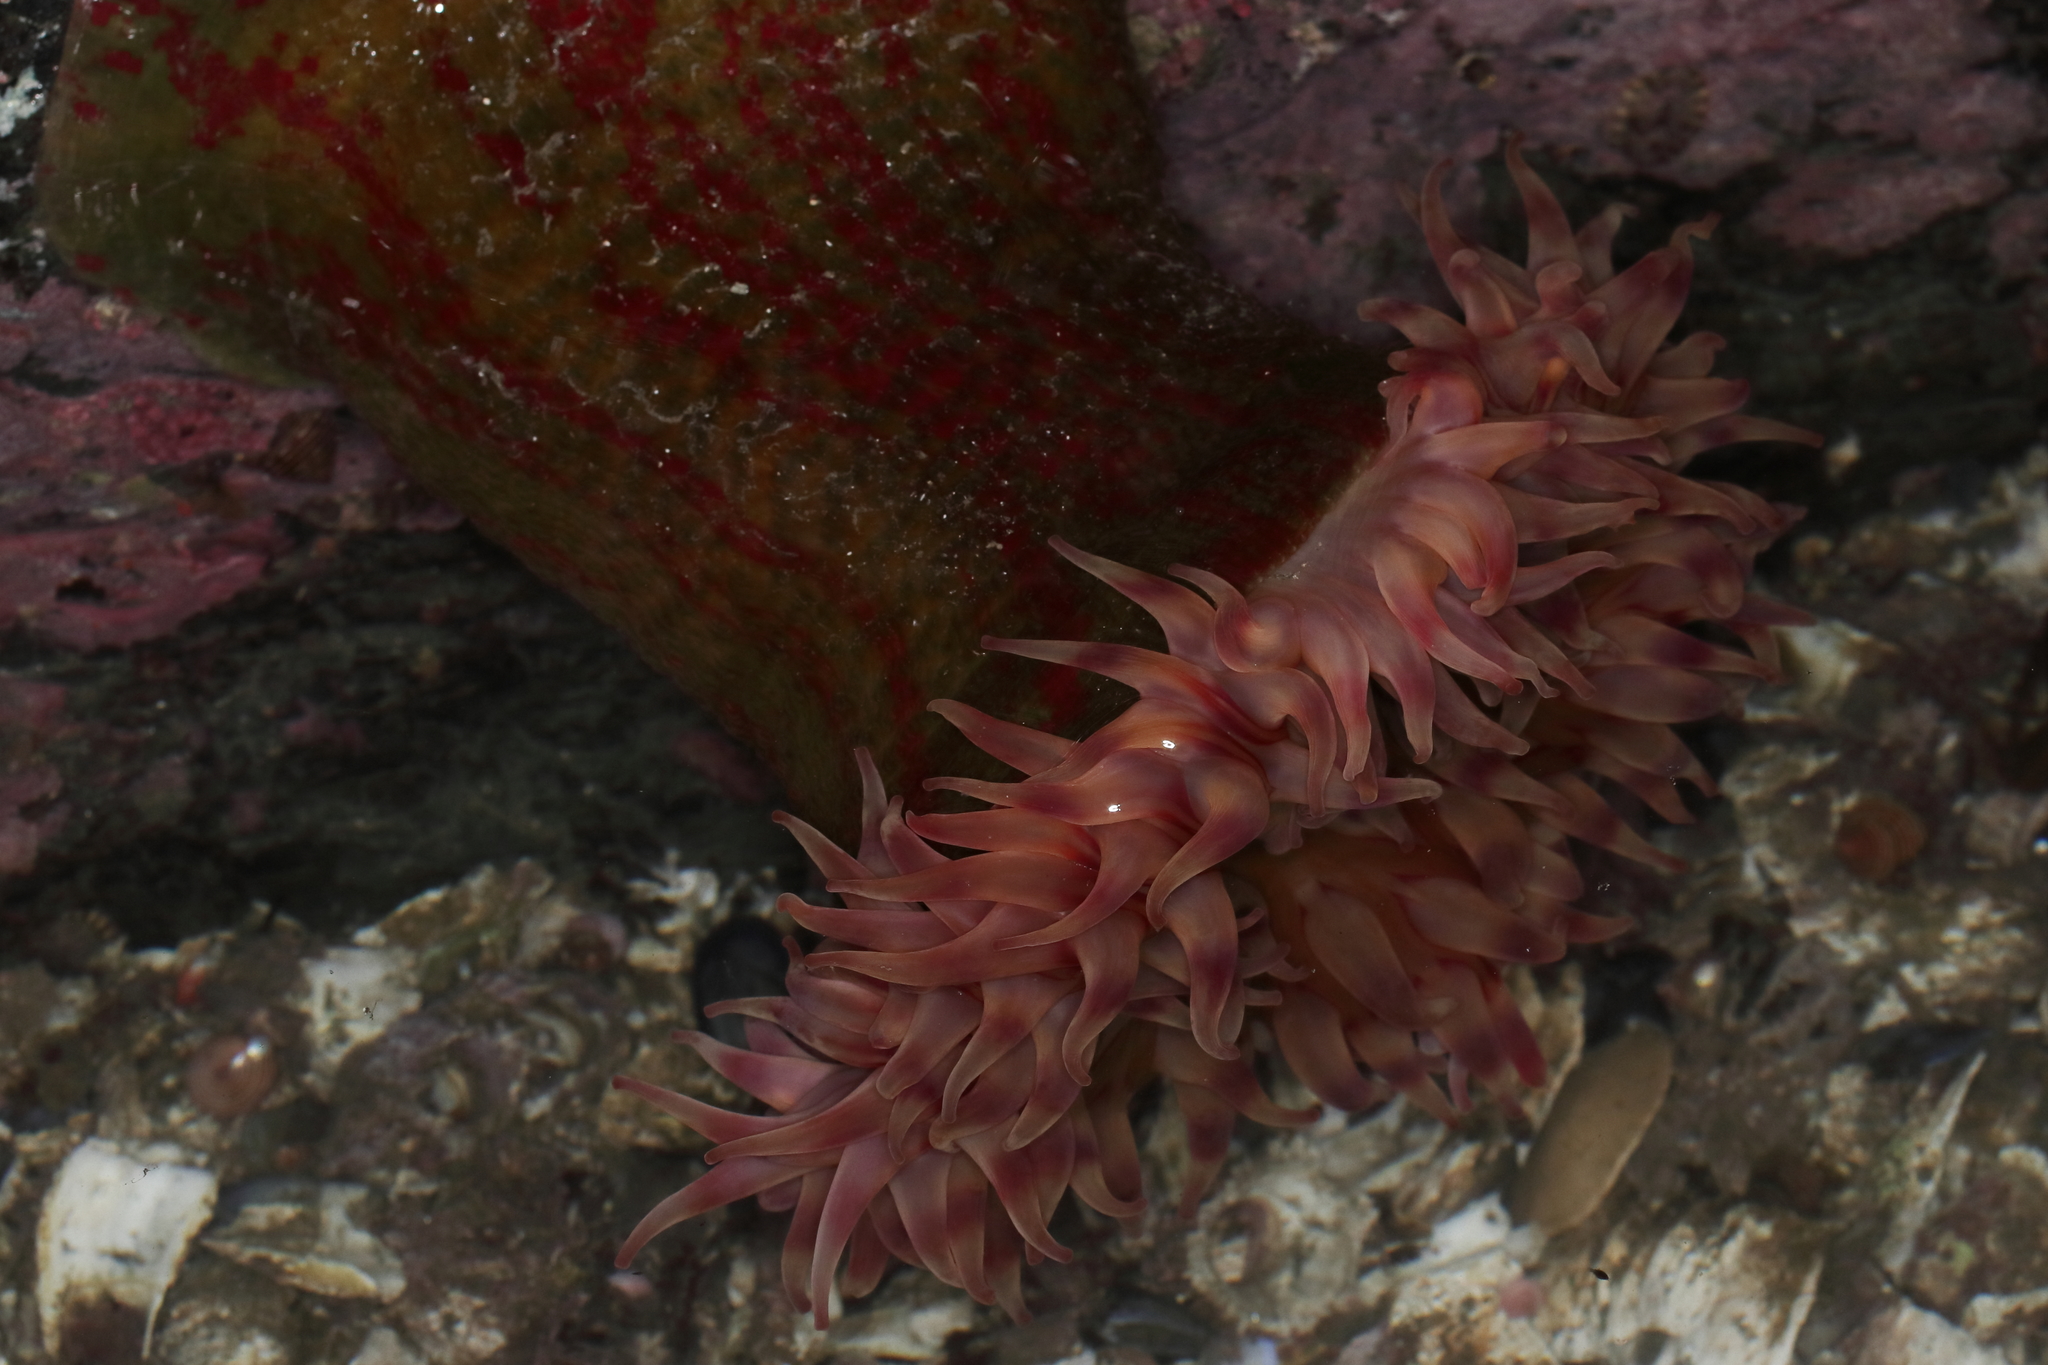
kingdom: Animalia
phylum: Cnidaria
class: Anthozoa
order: Actiniaria
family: Actiniidae
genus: Urticina
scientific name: Urticina grebelnyi
